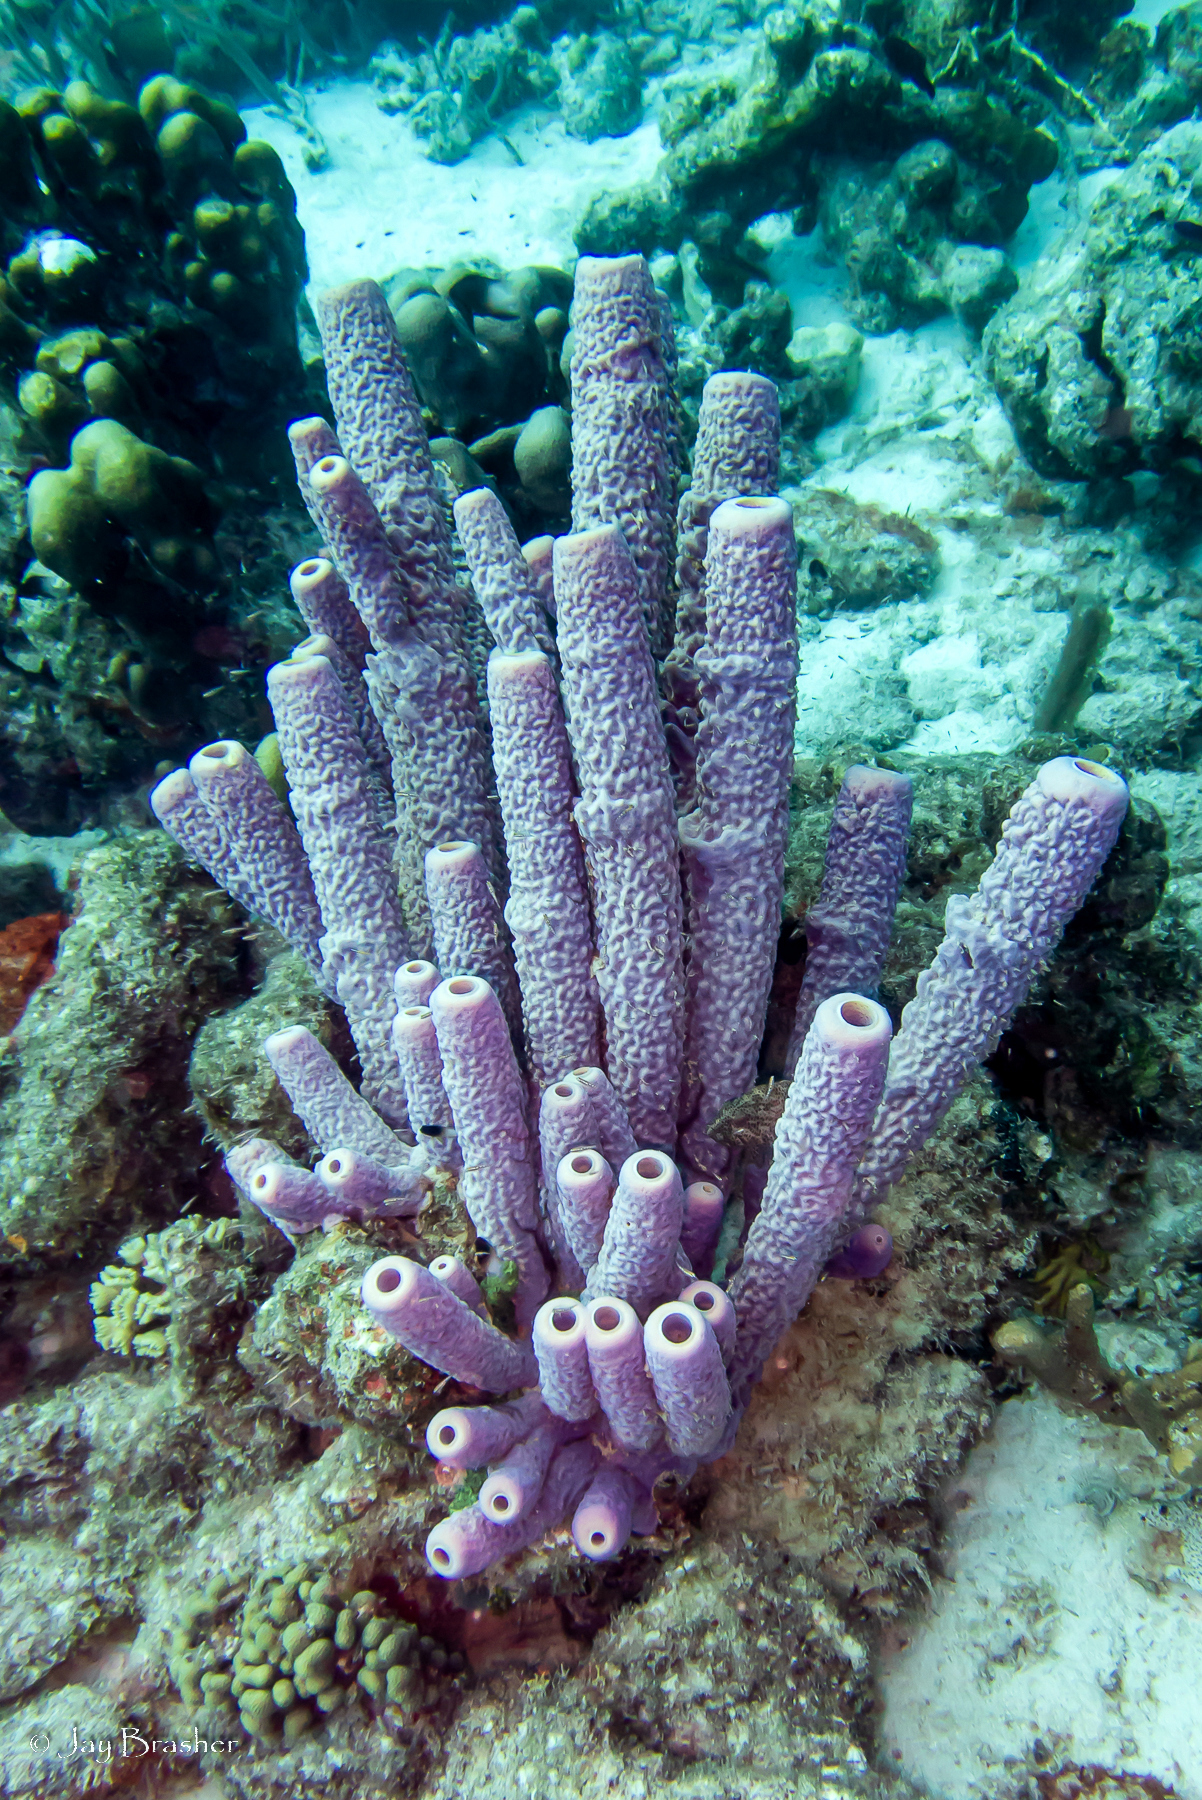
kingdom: Animalia
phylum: Cnidaria
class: Anthozoa
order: Scleractinia
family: Pocilloporidae
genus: Madracis
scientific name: Madracis decactis
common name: Ten-ray star coral
